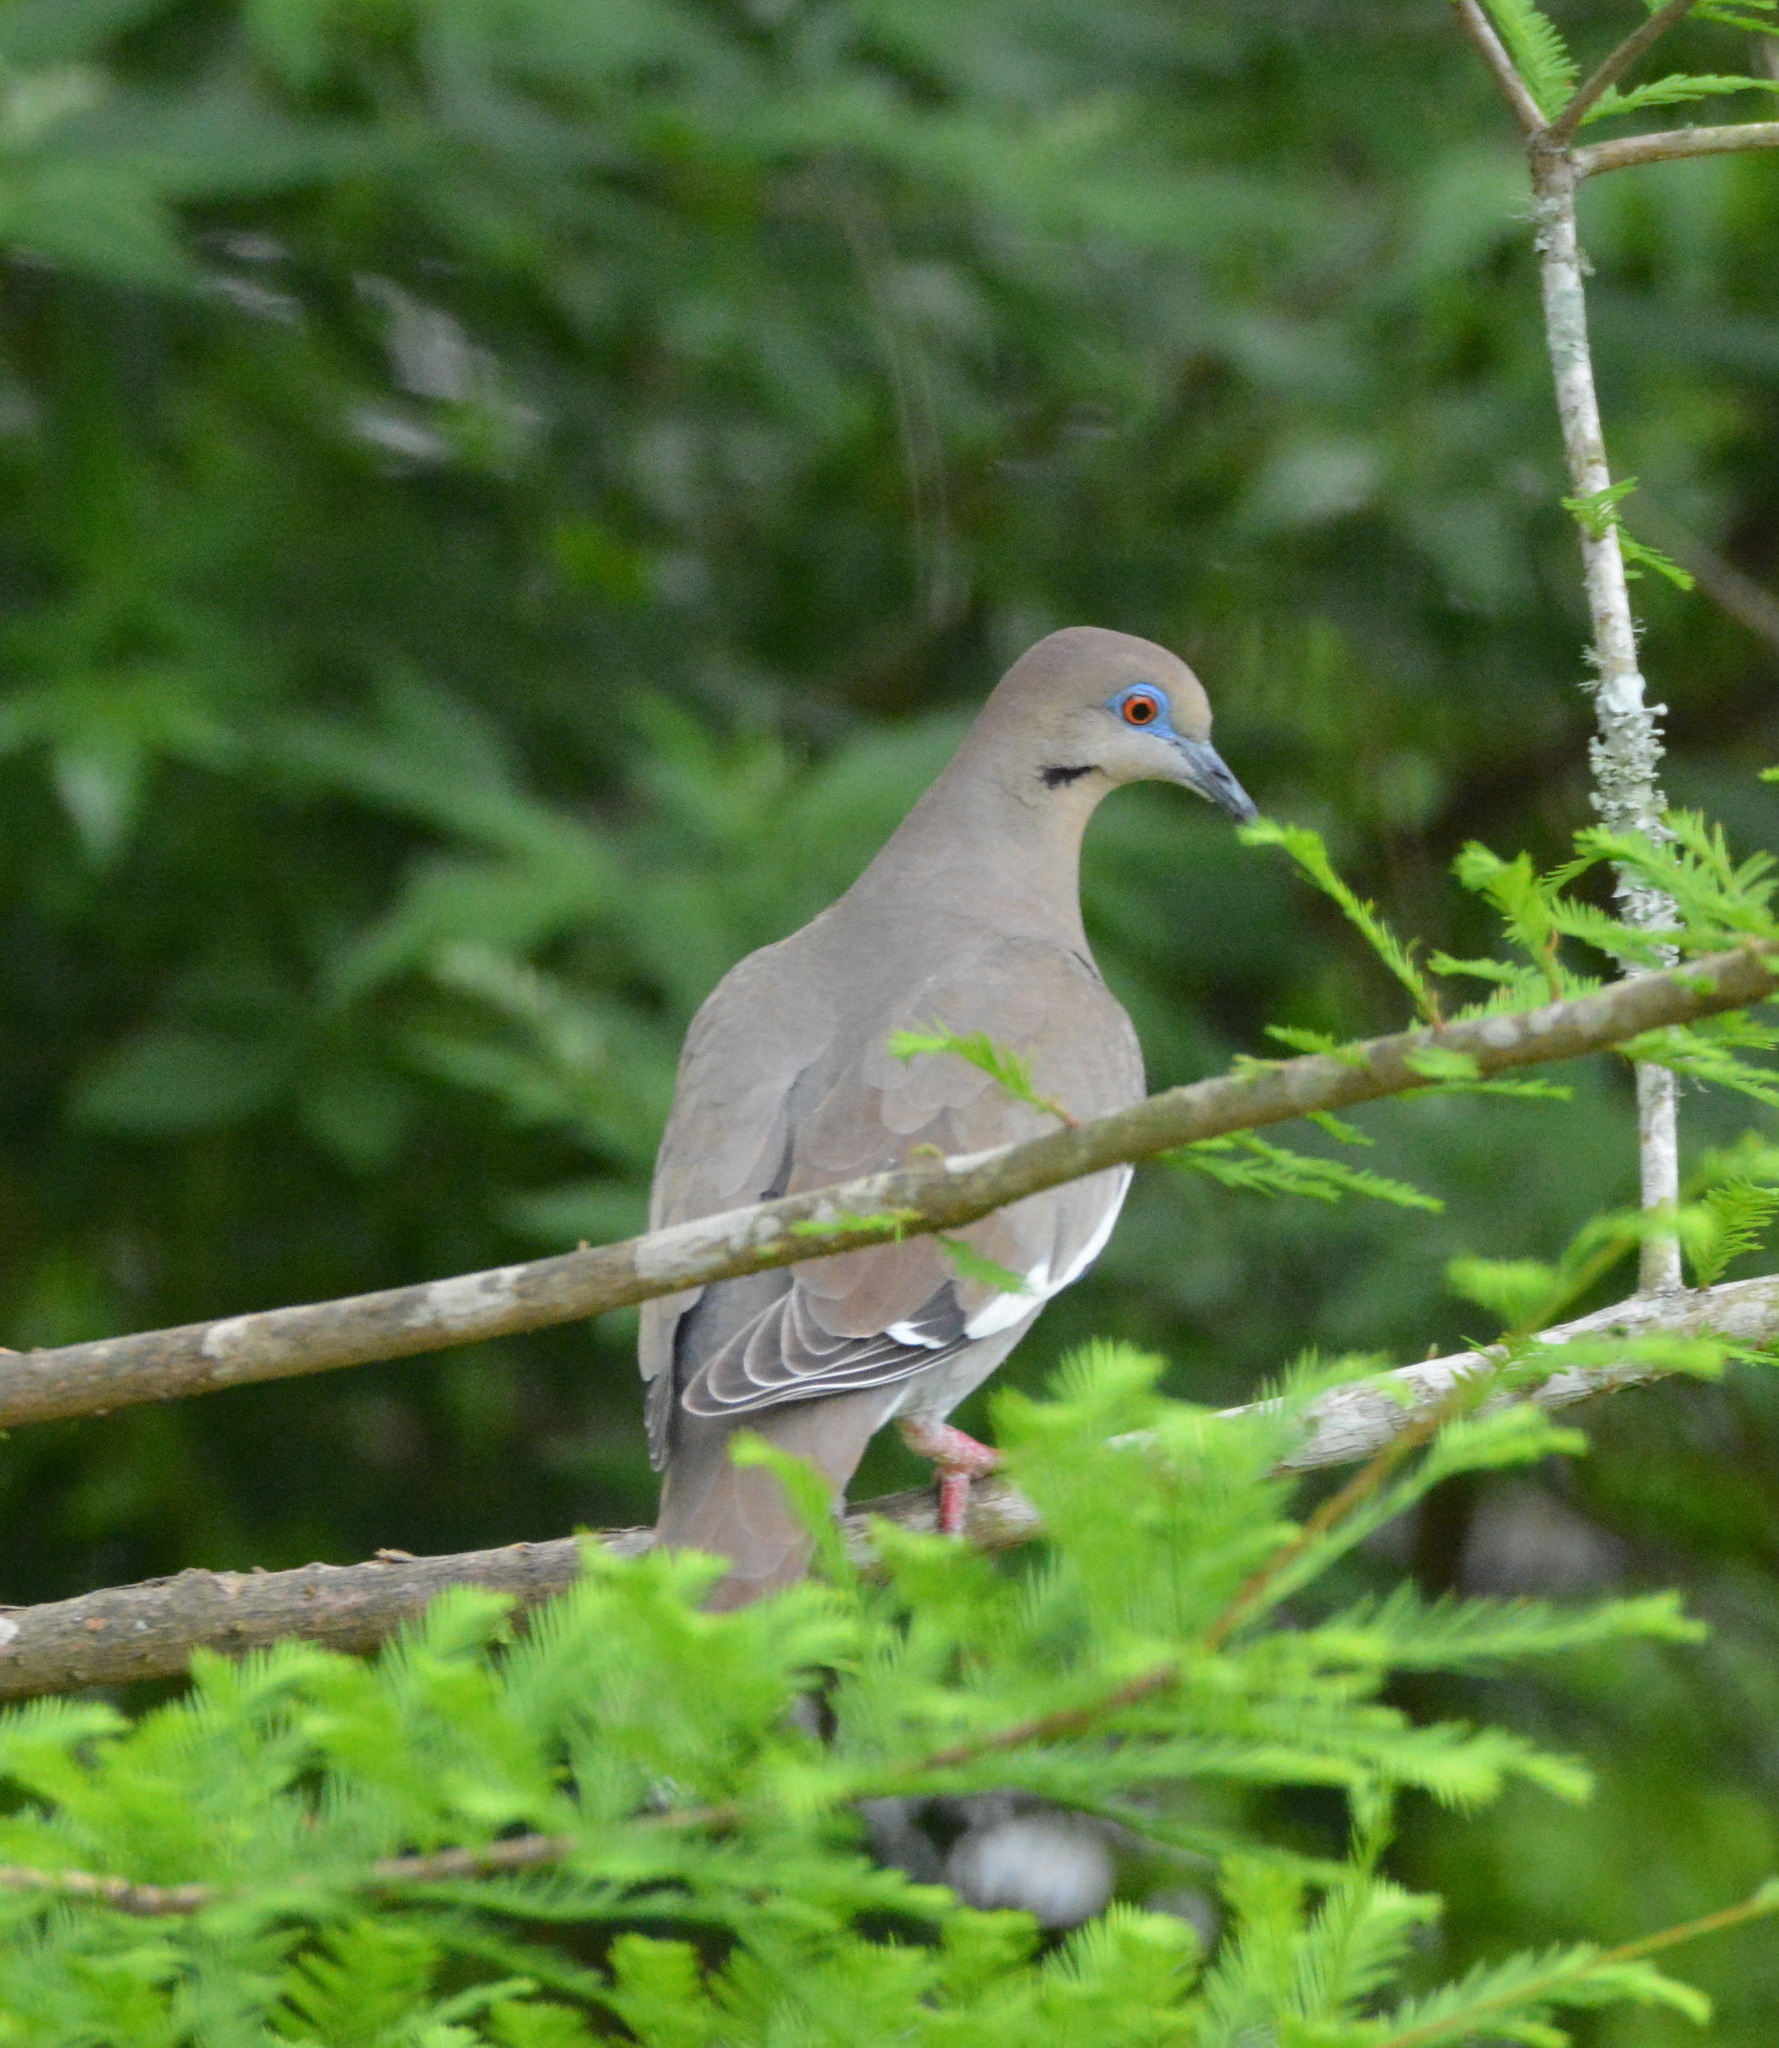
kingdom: Animalia
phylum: Chordata
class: Aves
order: Columbiformes
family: Columbidae
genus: Zenaida
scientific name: Zenaida asiatica
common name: White-winged dove
